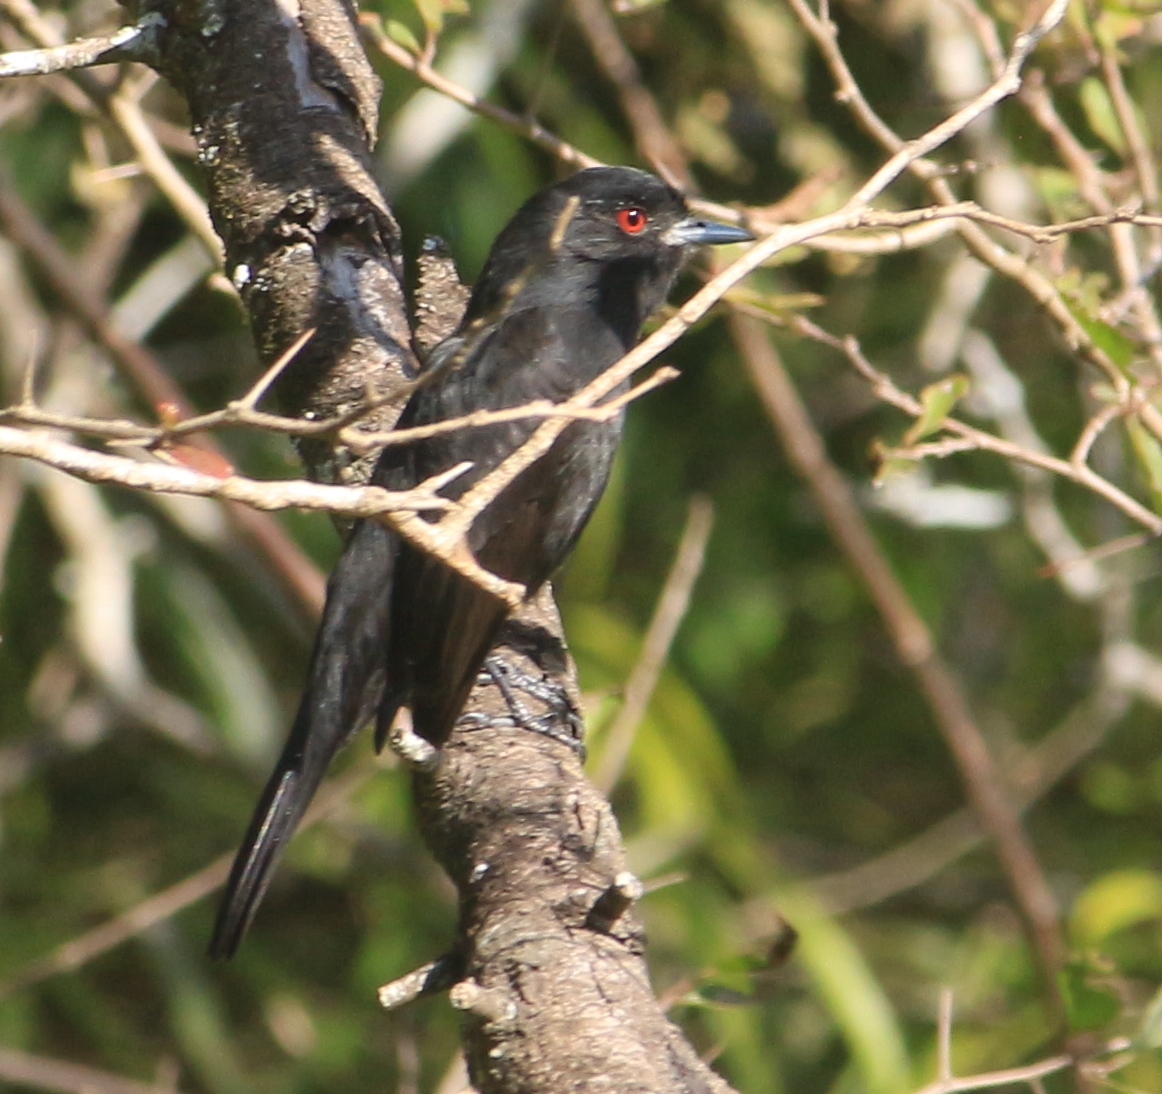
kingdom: Animalia
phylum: Chordata
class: Aves
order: Passeriformes
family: Tyrannidae
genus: Knipolegus
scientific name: Knipolegus cyanirostris
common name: Blue-billed black tyrant
